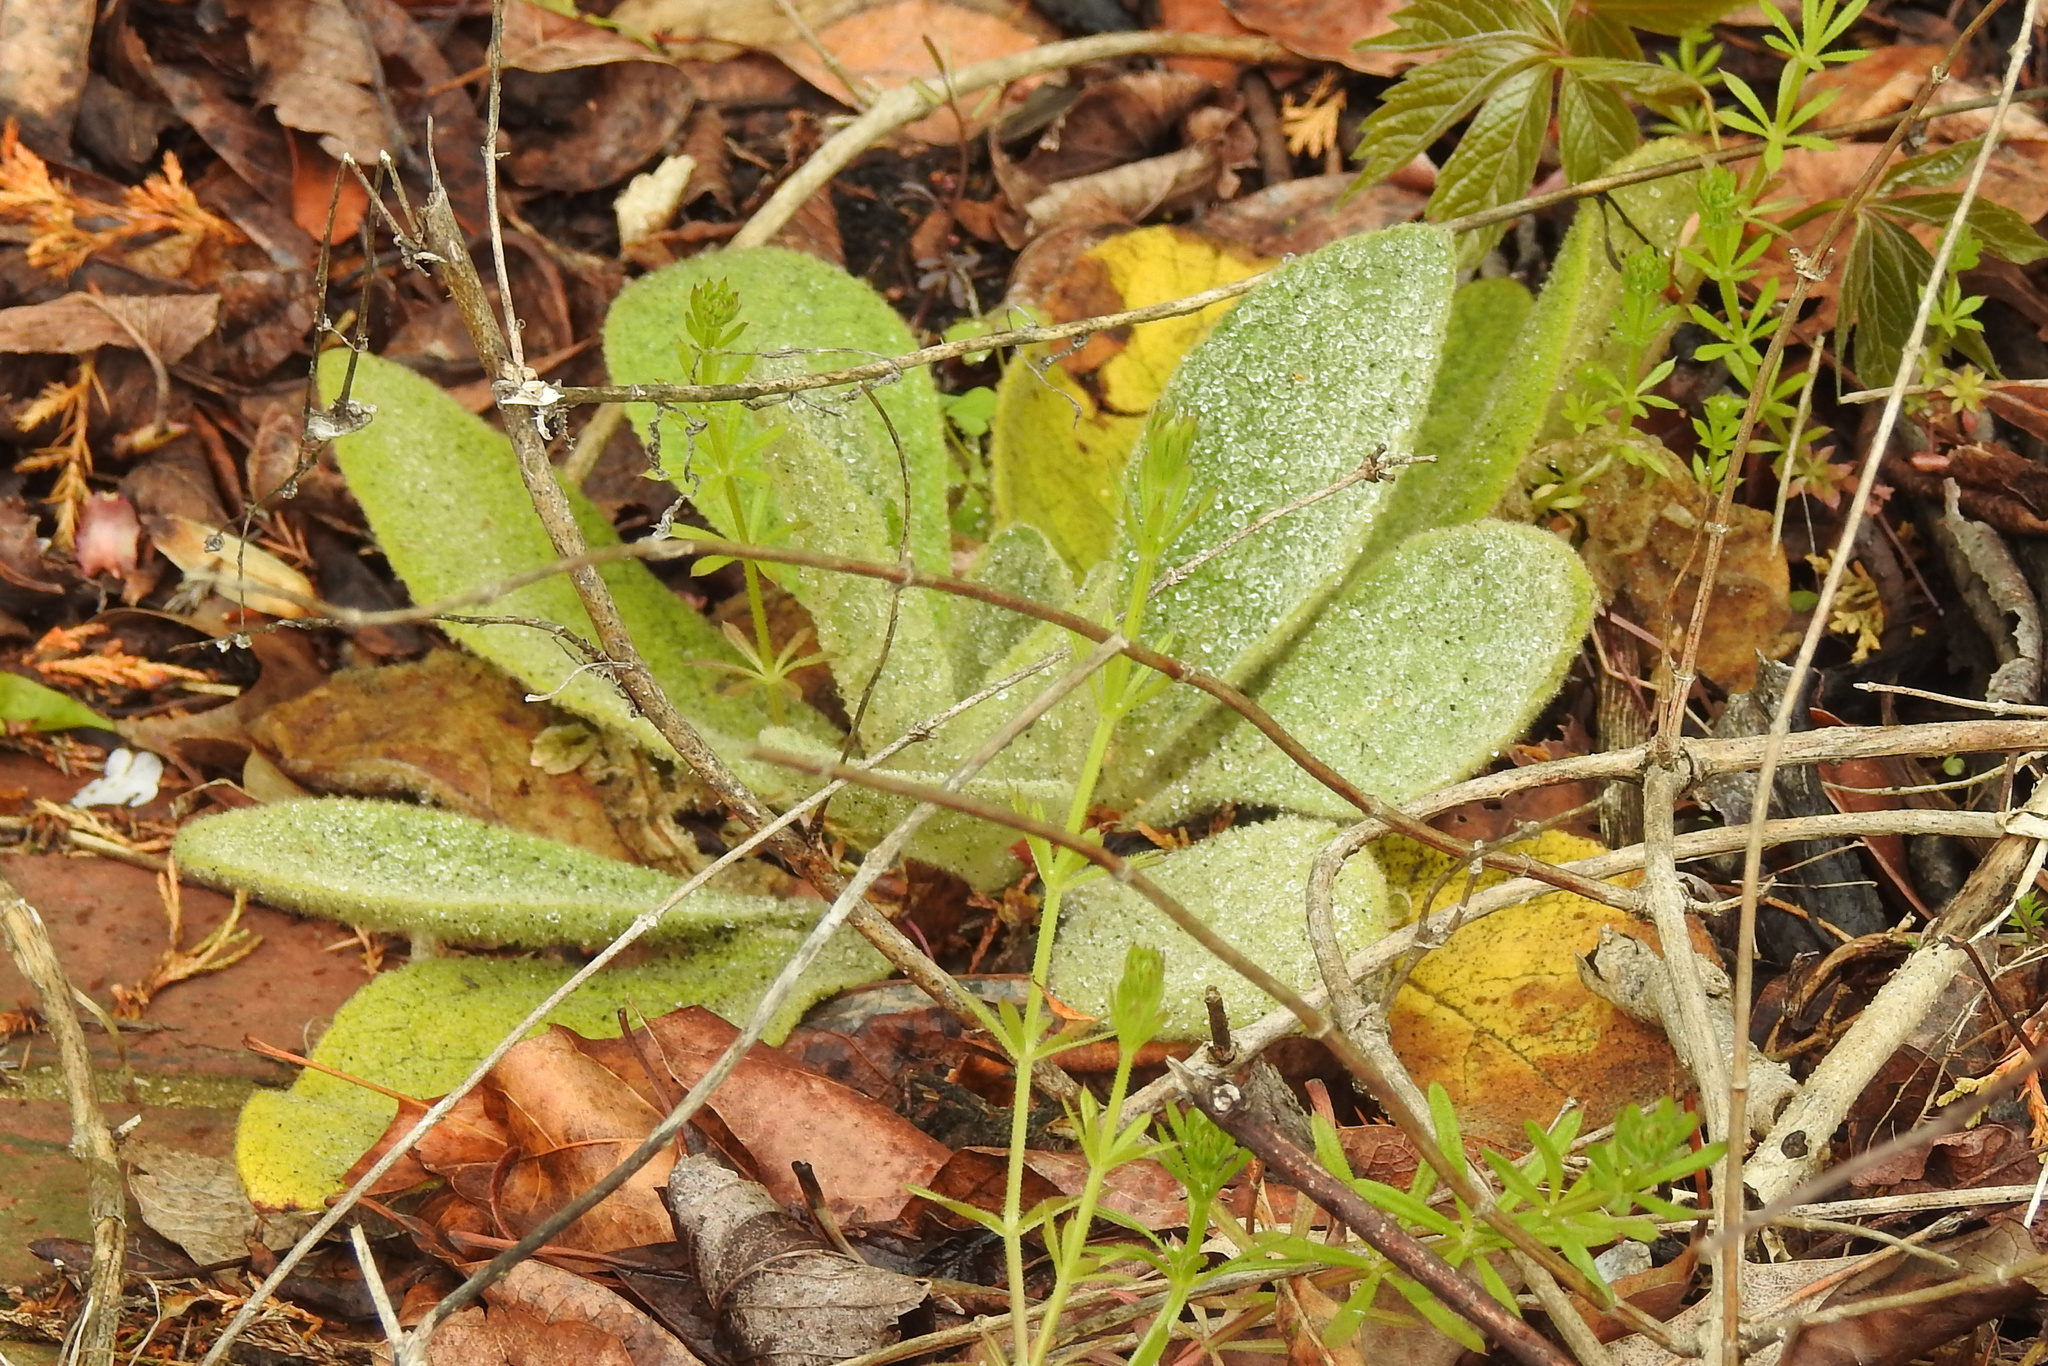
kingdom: Plantae
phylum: Tracheophyta
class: Magnoliopsida
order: Lamiales
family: Scrophulariaceae
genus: Verbascum
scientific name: Verbascum thapsus
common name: Common mullein
